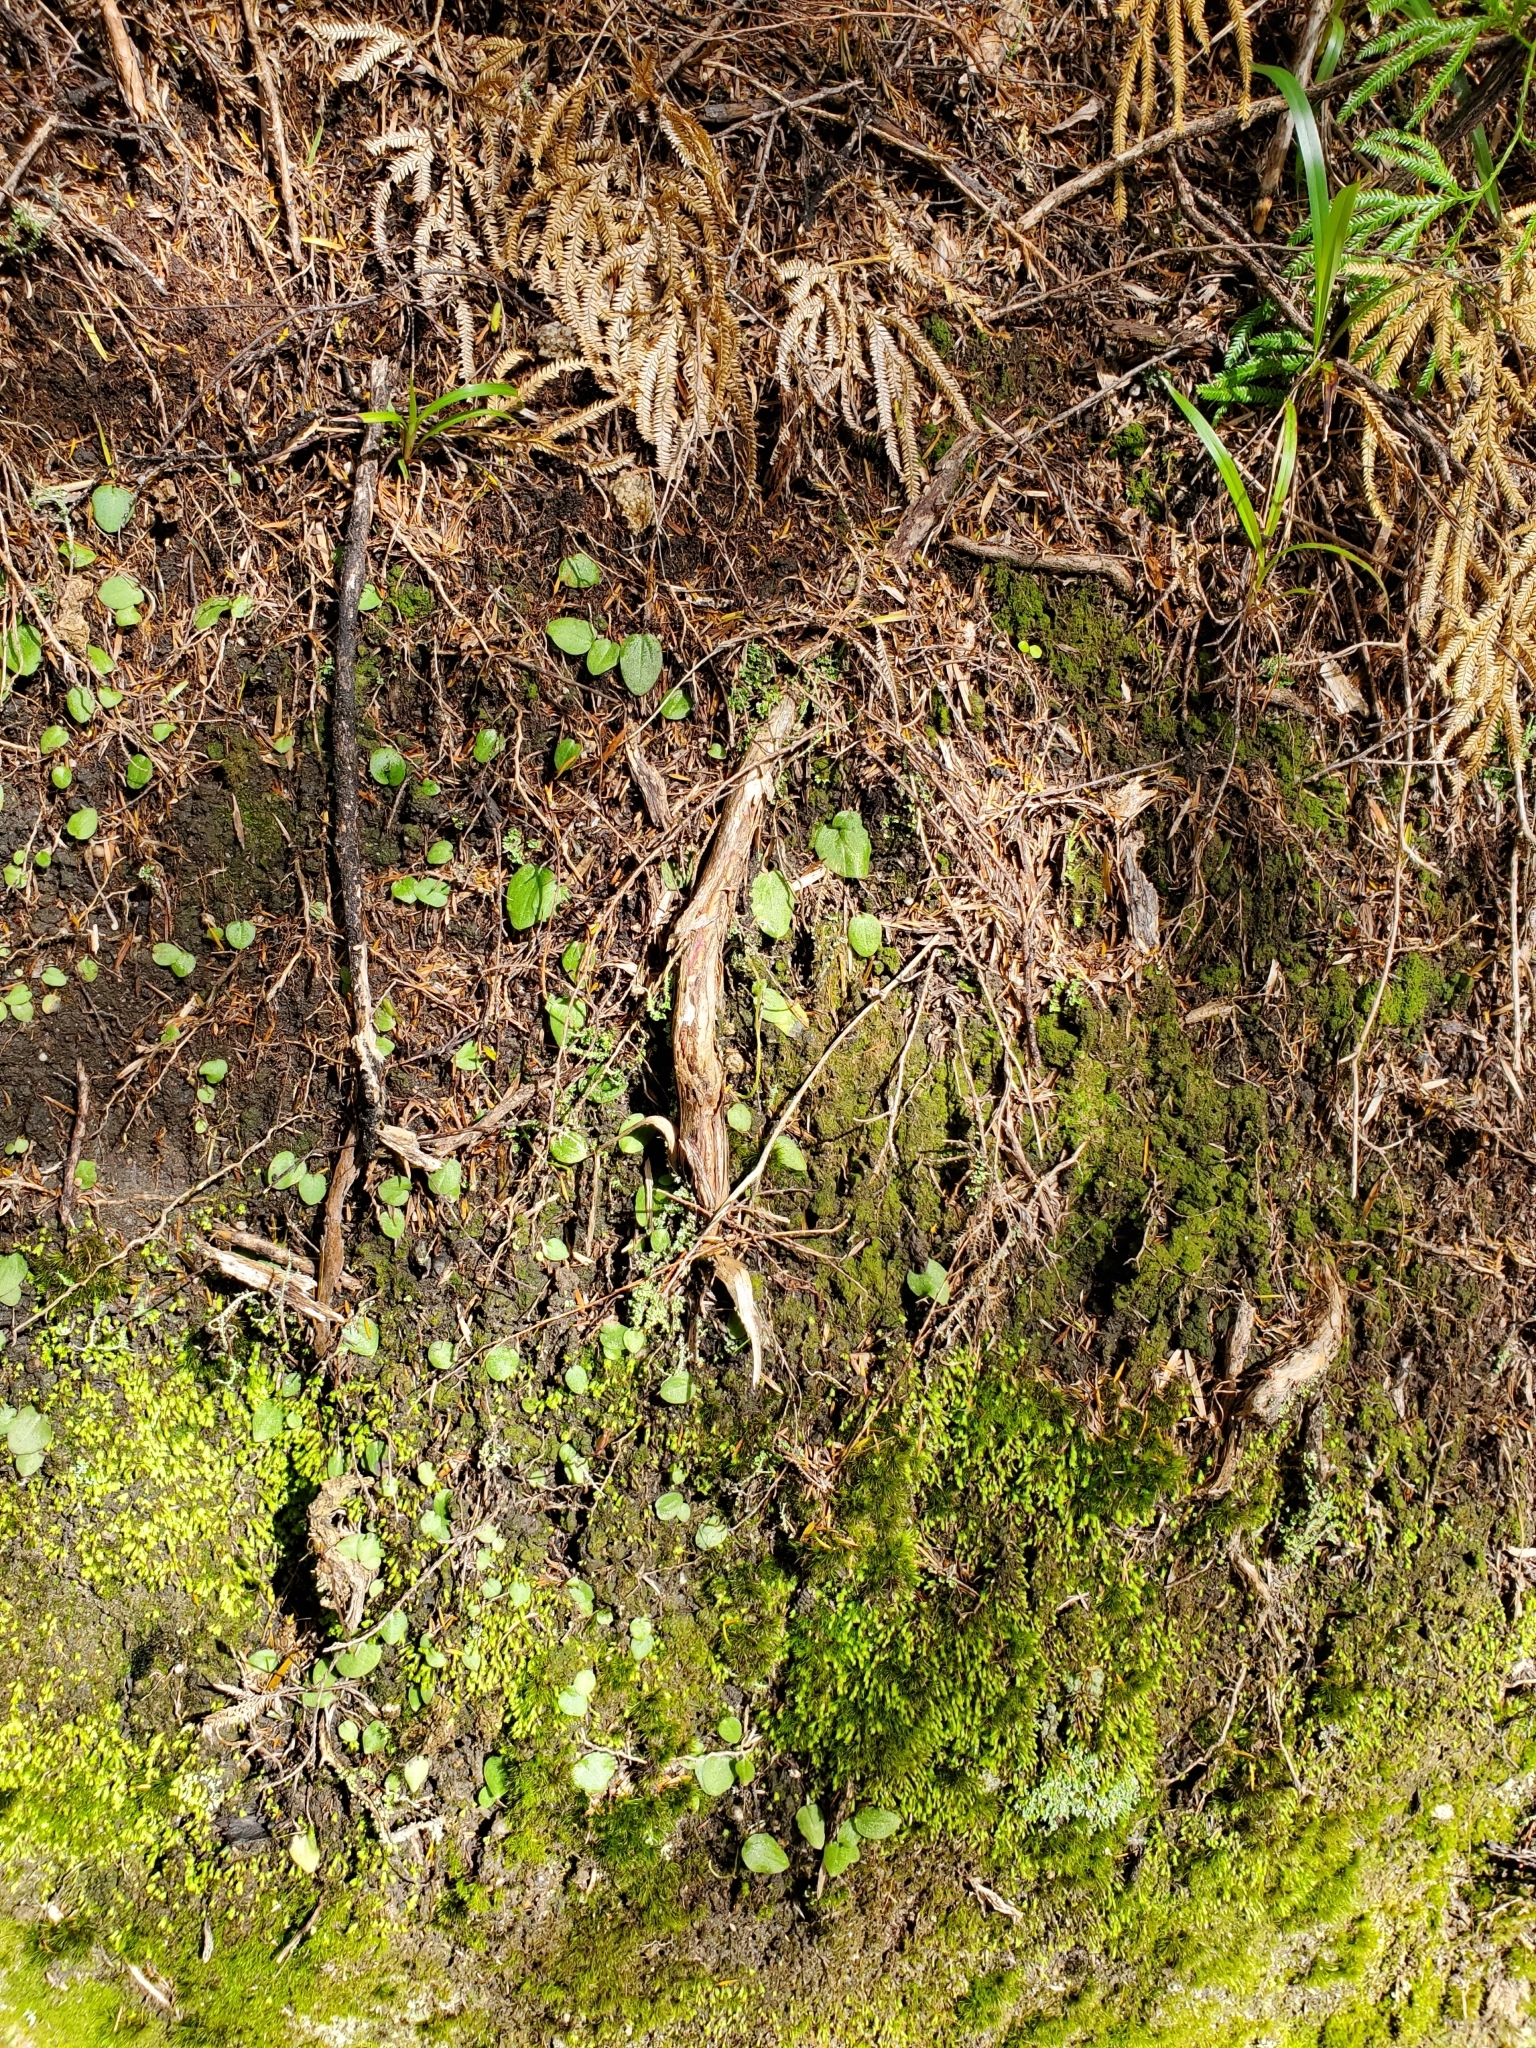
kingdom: Plantae
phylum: Tracheophyta
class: Liliopsida
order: Asparagales
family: Orchidaceae
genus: Cyrtostylis
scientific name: Cyrtostylis rotundifolia
